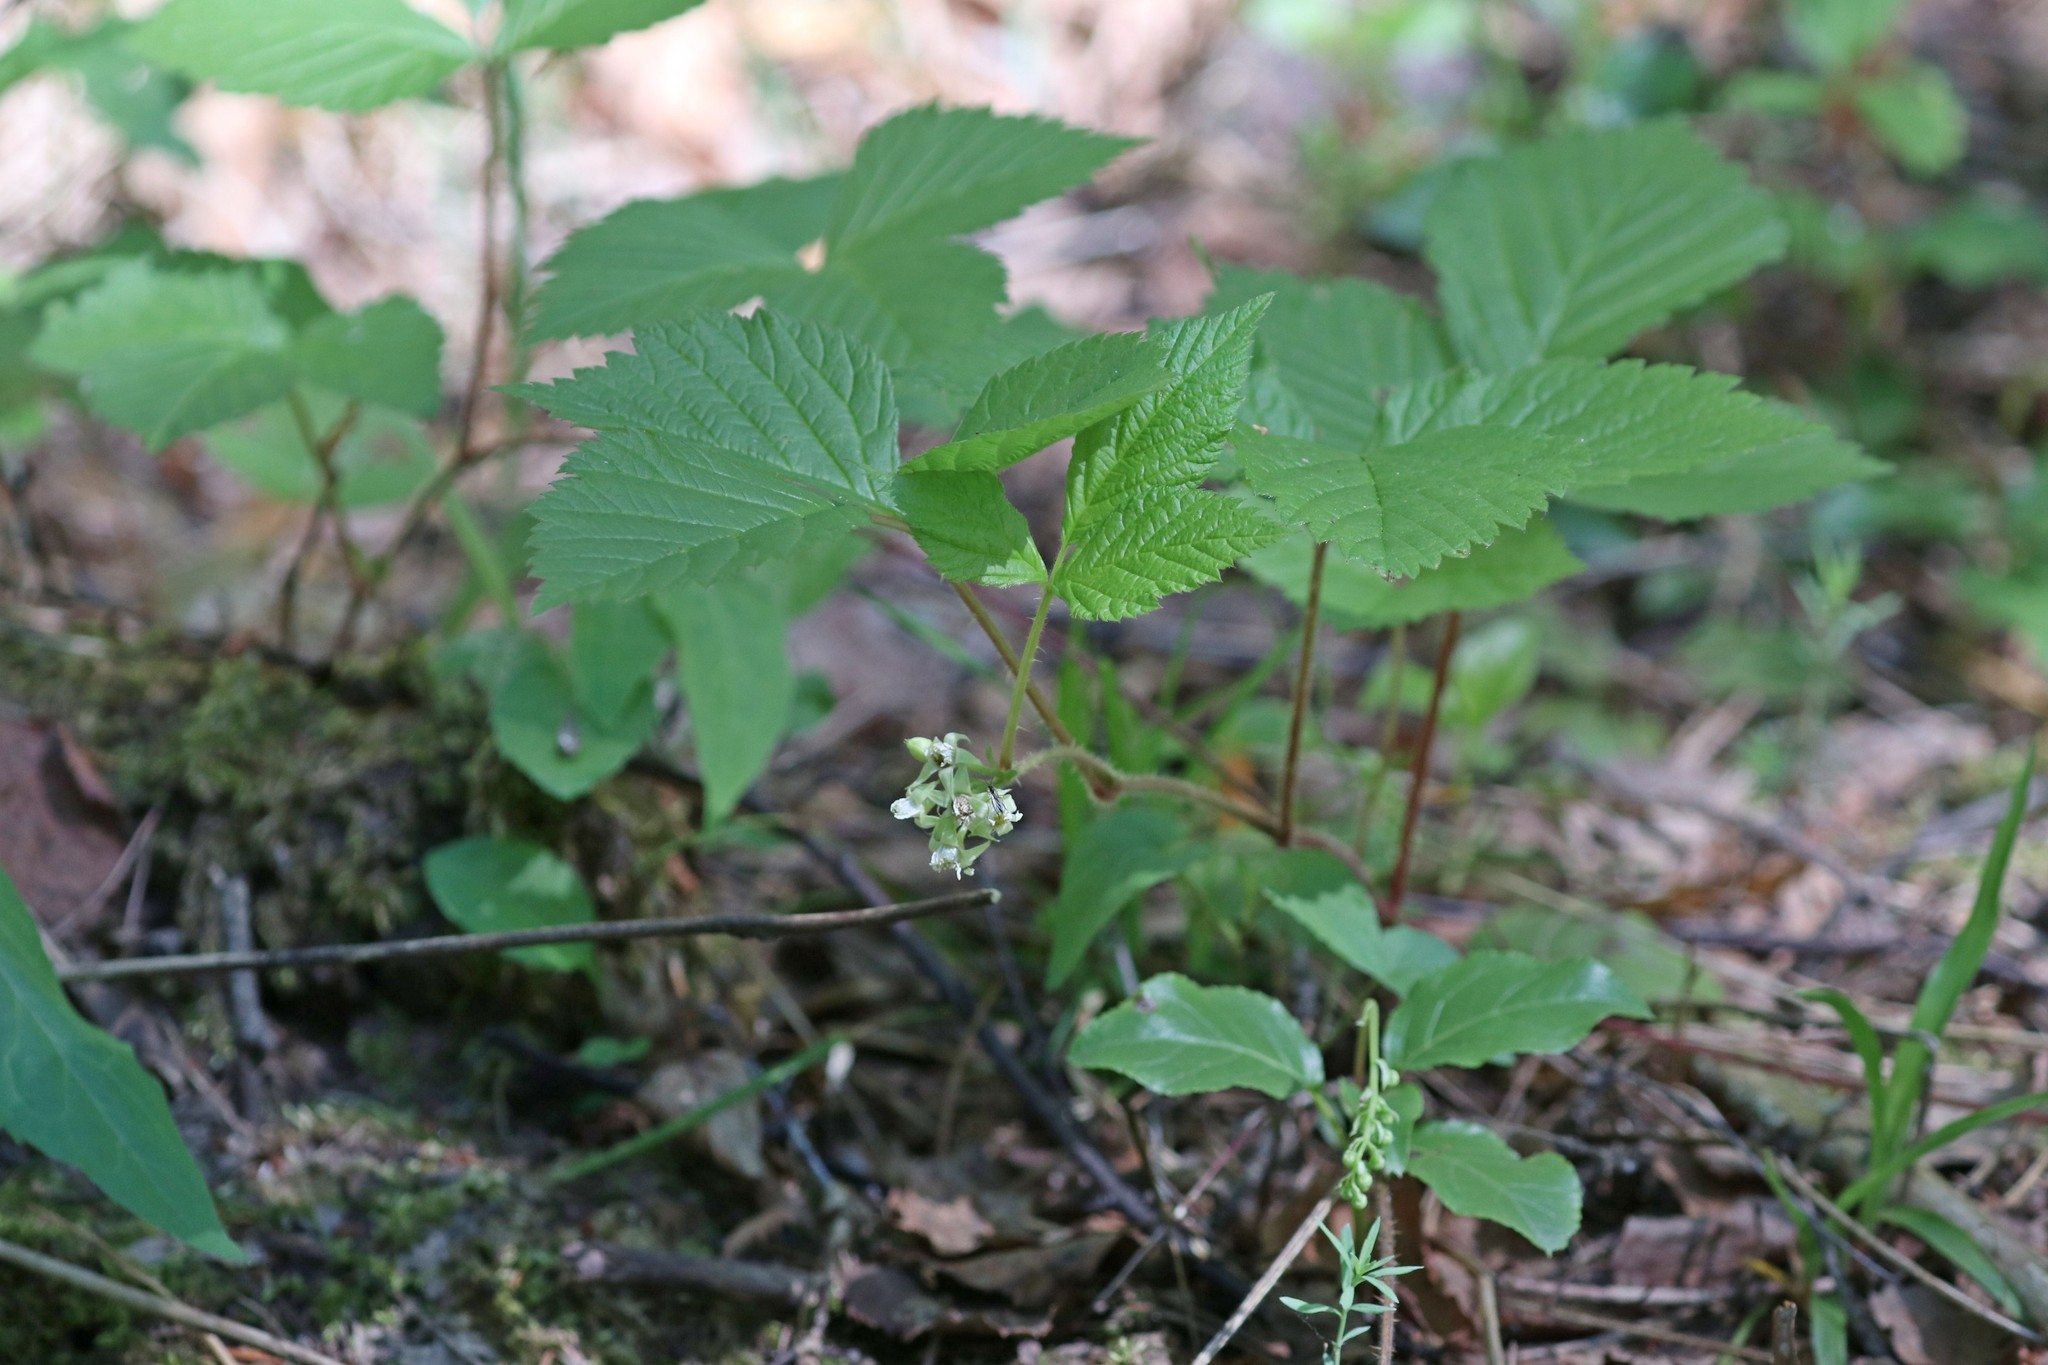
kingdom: Plantae
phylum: Tracheophyta
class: Magnoliopsida
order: Rosales
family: Rosaceae
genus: Rubus
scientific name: Rubus saxatilis
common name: Stone bramble
